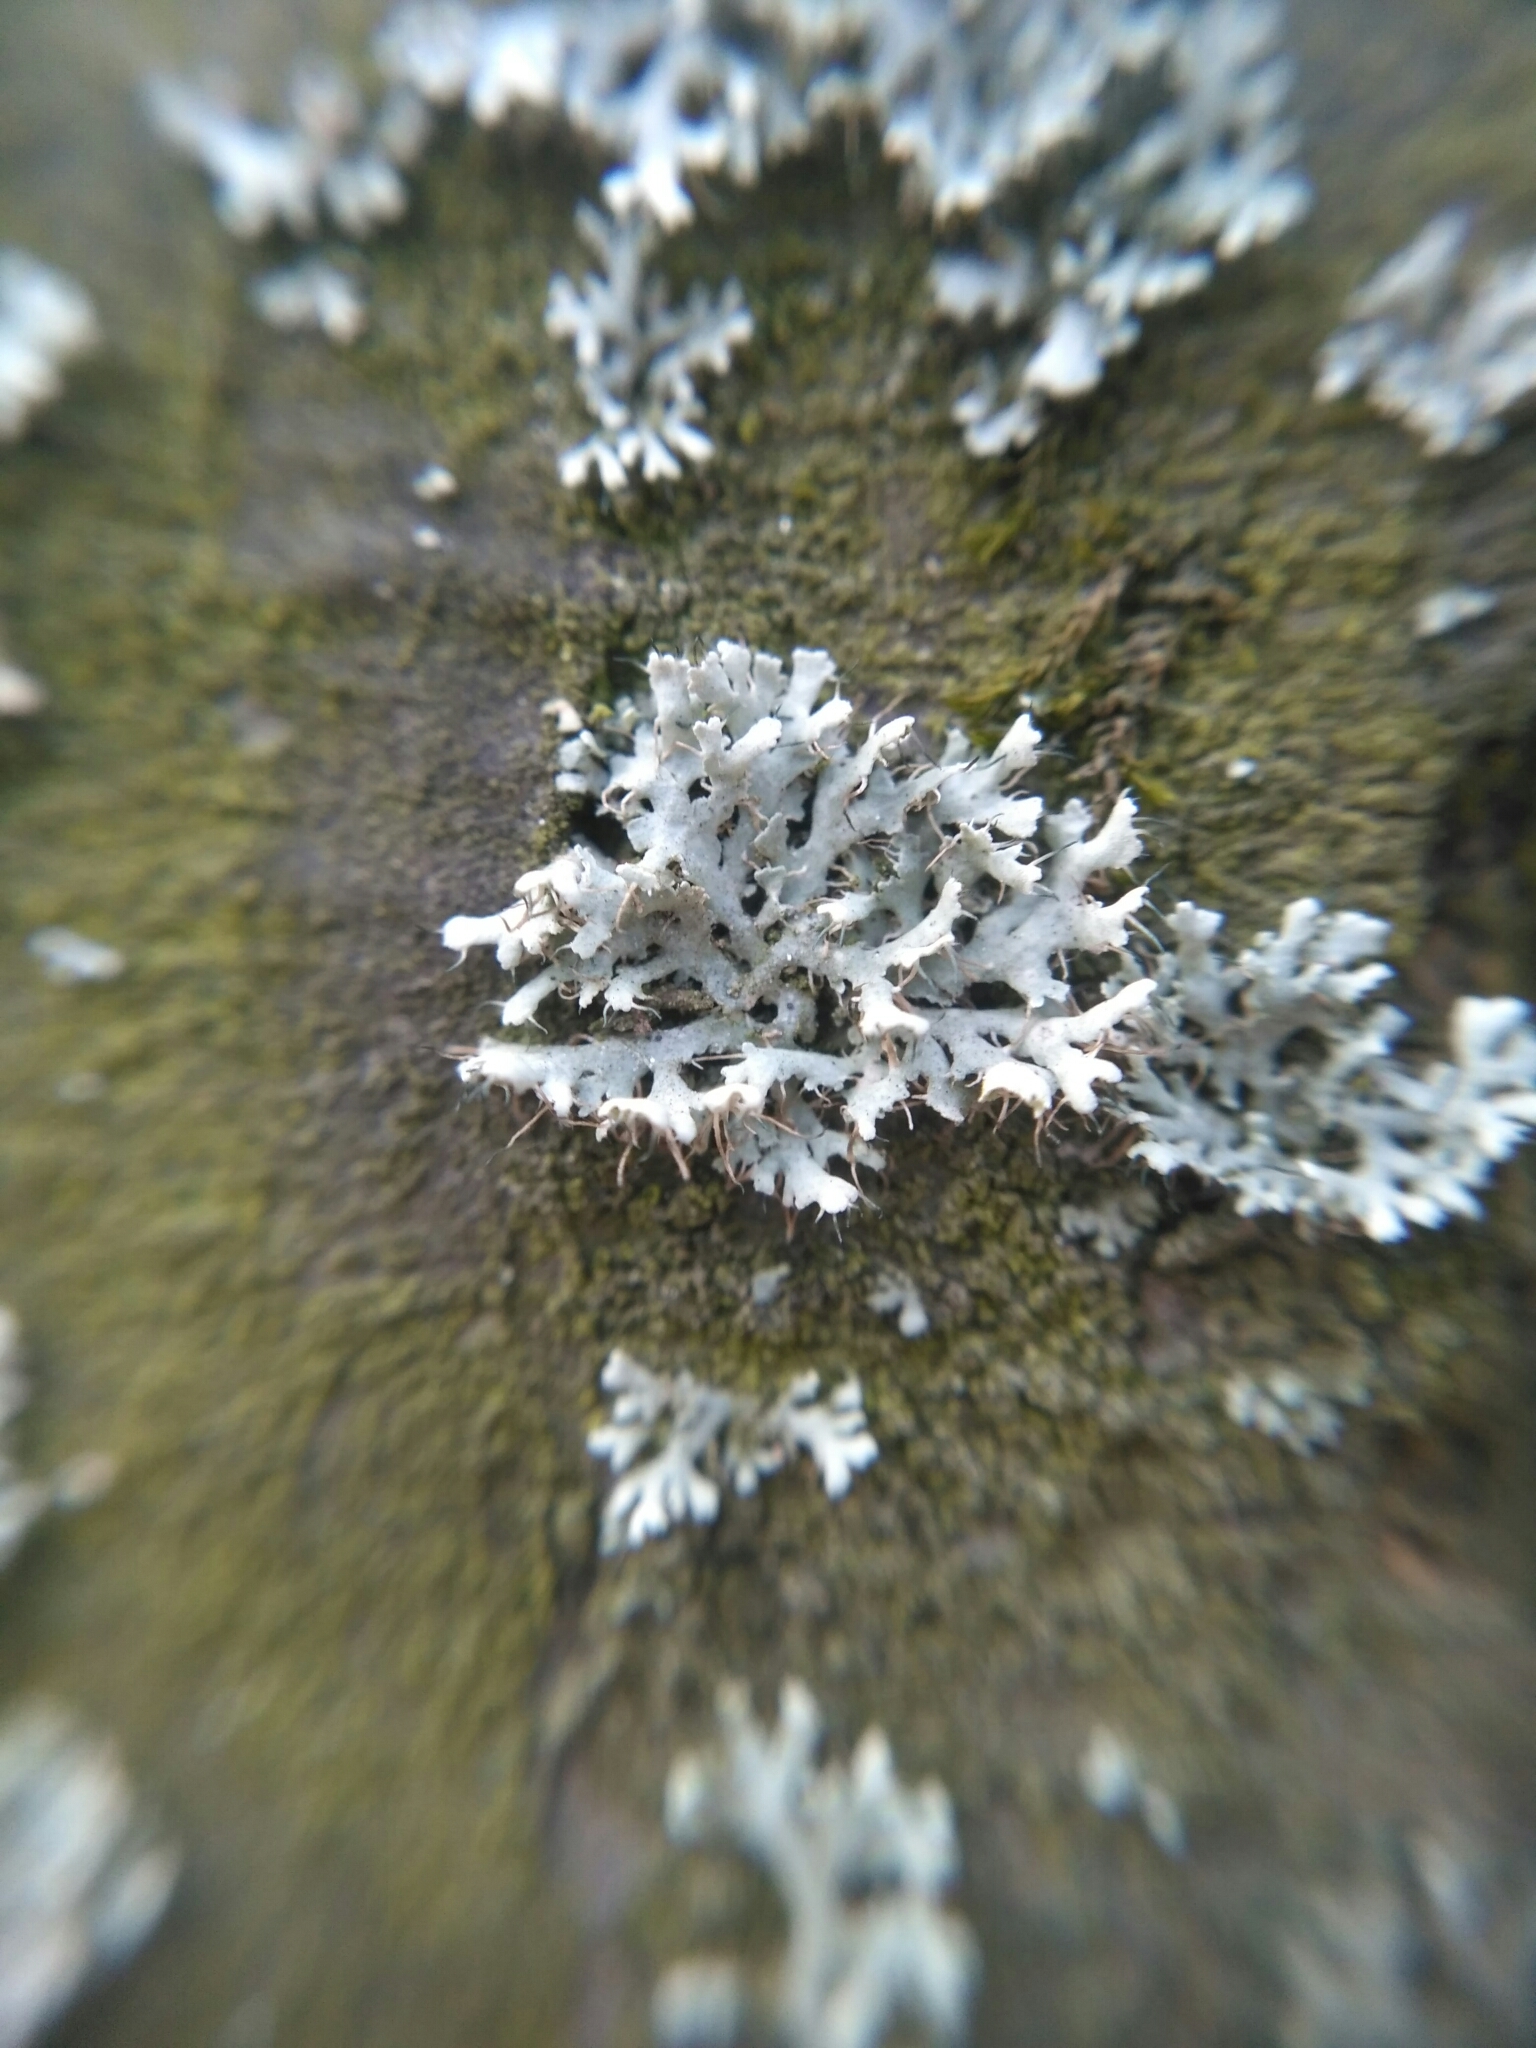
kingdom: Fungi
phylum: Ascomycota
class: Lecanoromycetes
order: Caliciales
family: Physciaceae
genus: Physcia
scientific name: Physcia adscendens
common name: Hooded rosette lichen
